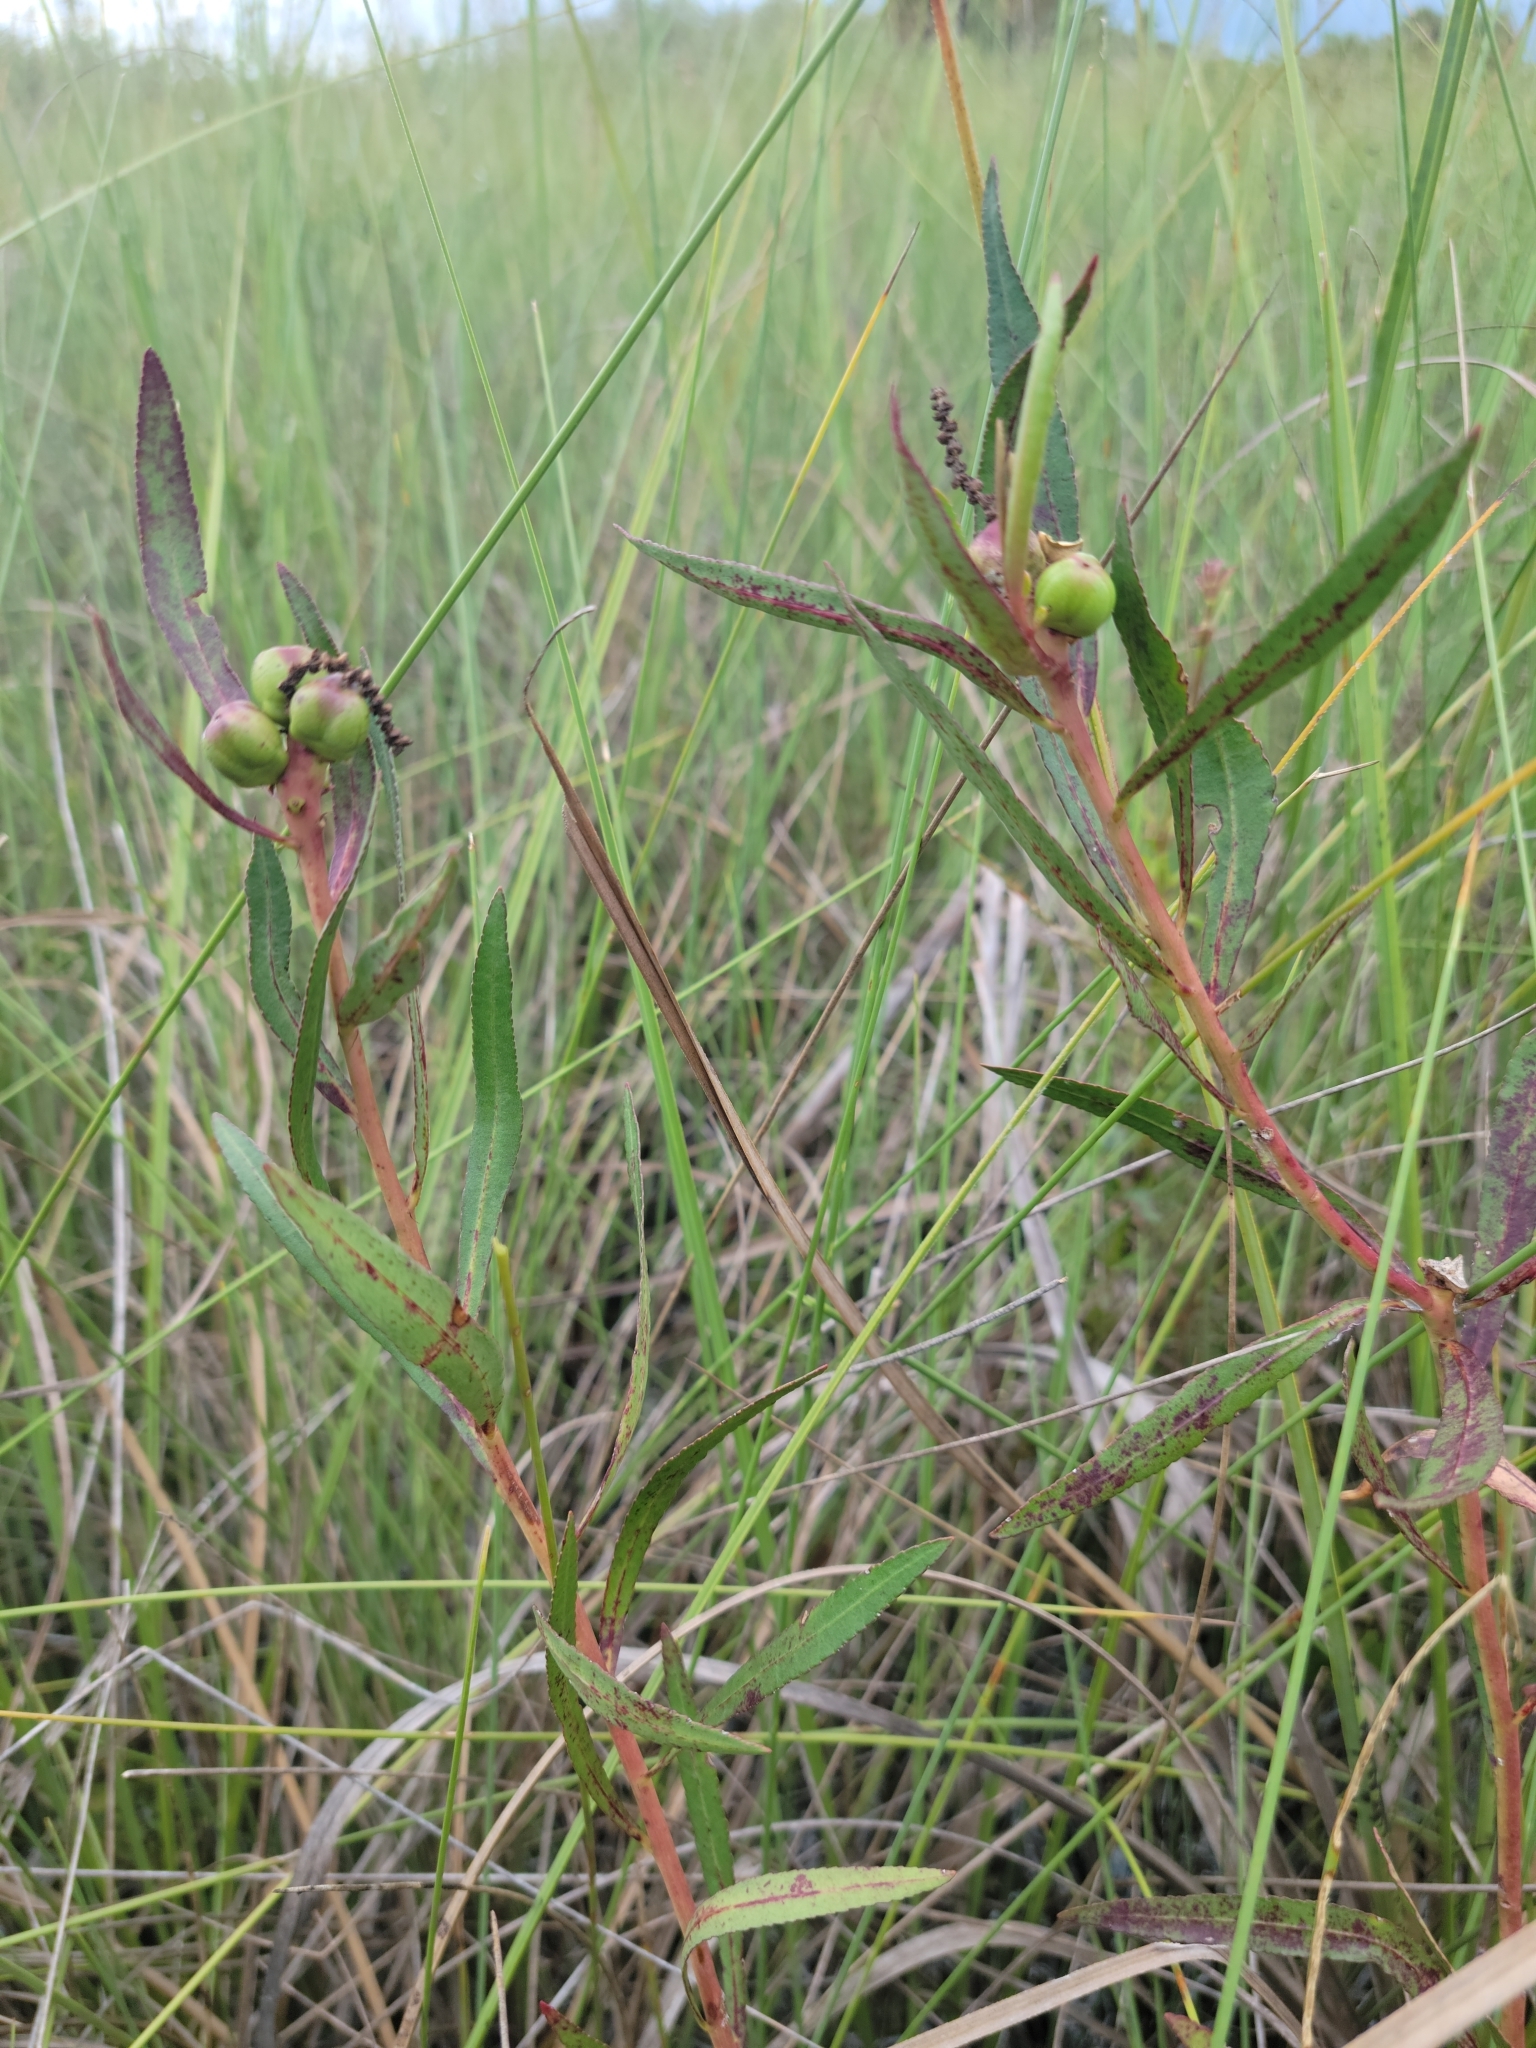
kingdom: Plantae
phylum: Tracheophyta
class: Magnoliopsida
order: Malpighiales
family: Euphorbiaceae
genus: Stillingia
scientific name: Stillingia sylvatica
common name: Queen's-delight
